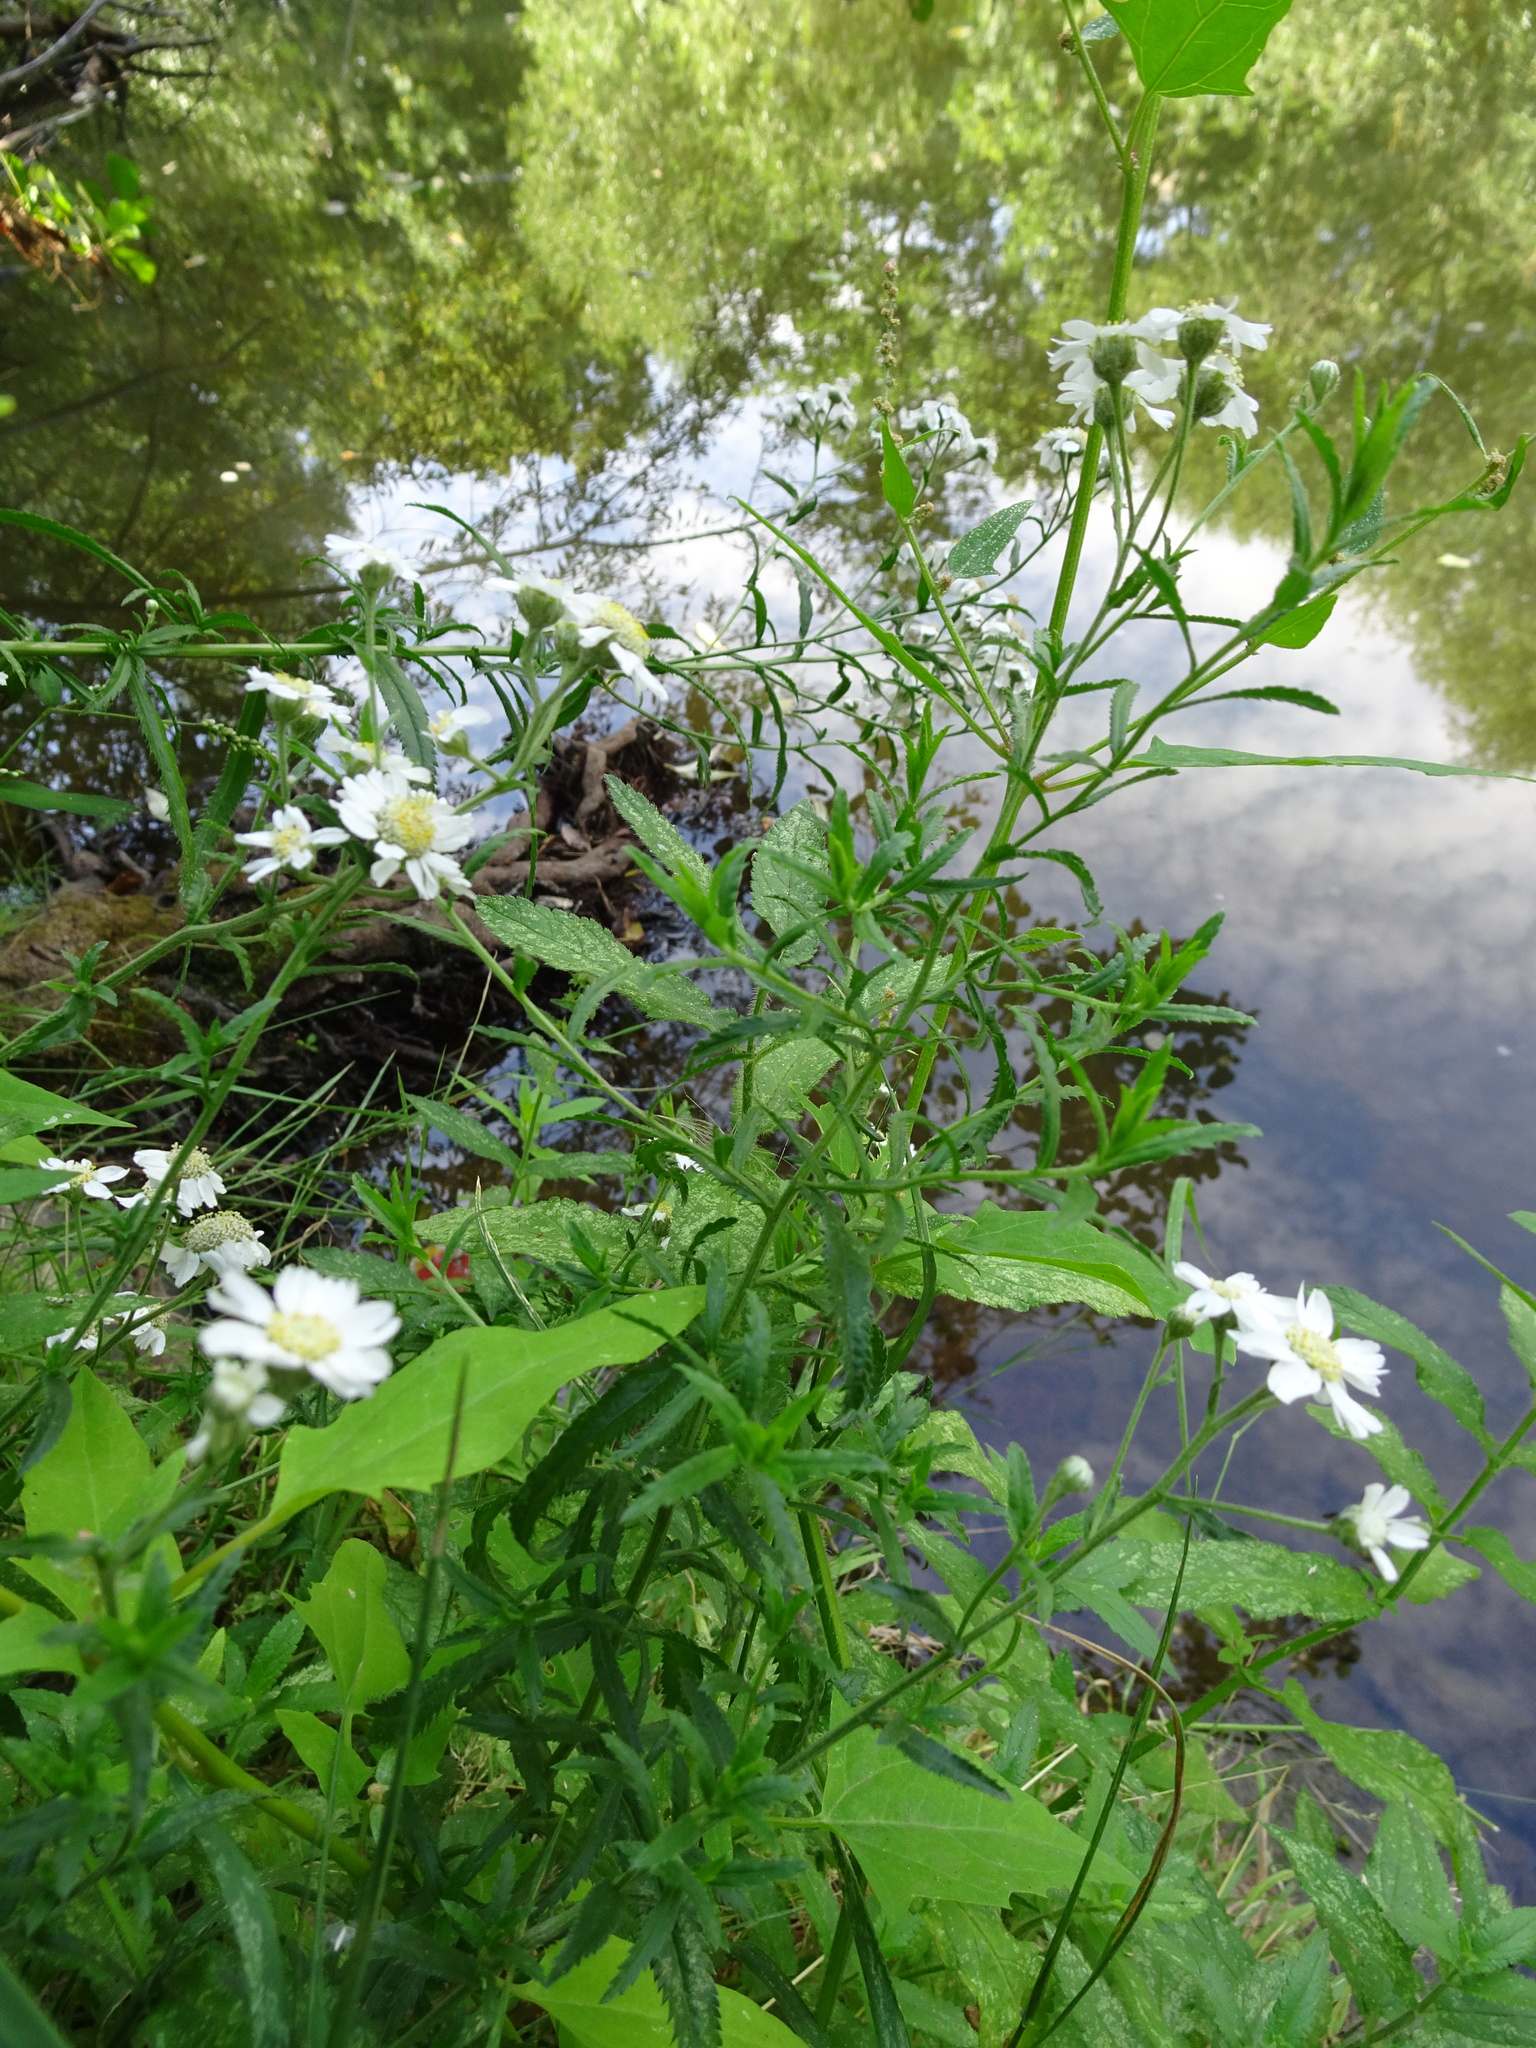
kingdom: Plantae
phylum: Tracheophyta
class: Magnoliopsida
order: Asterales
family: Asteraceae
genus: Achillea
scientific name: Achillea ptarmica
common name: Sneezeweed
